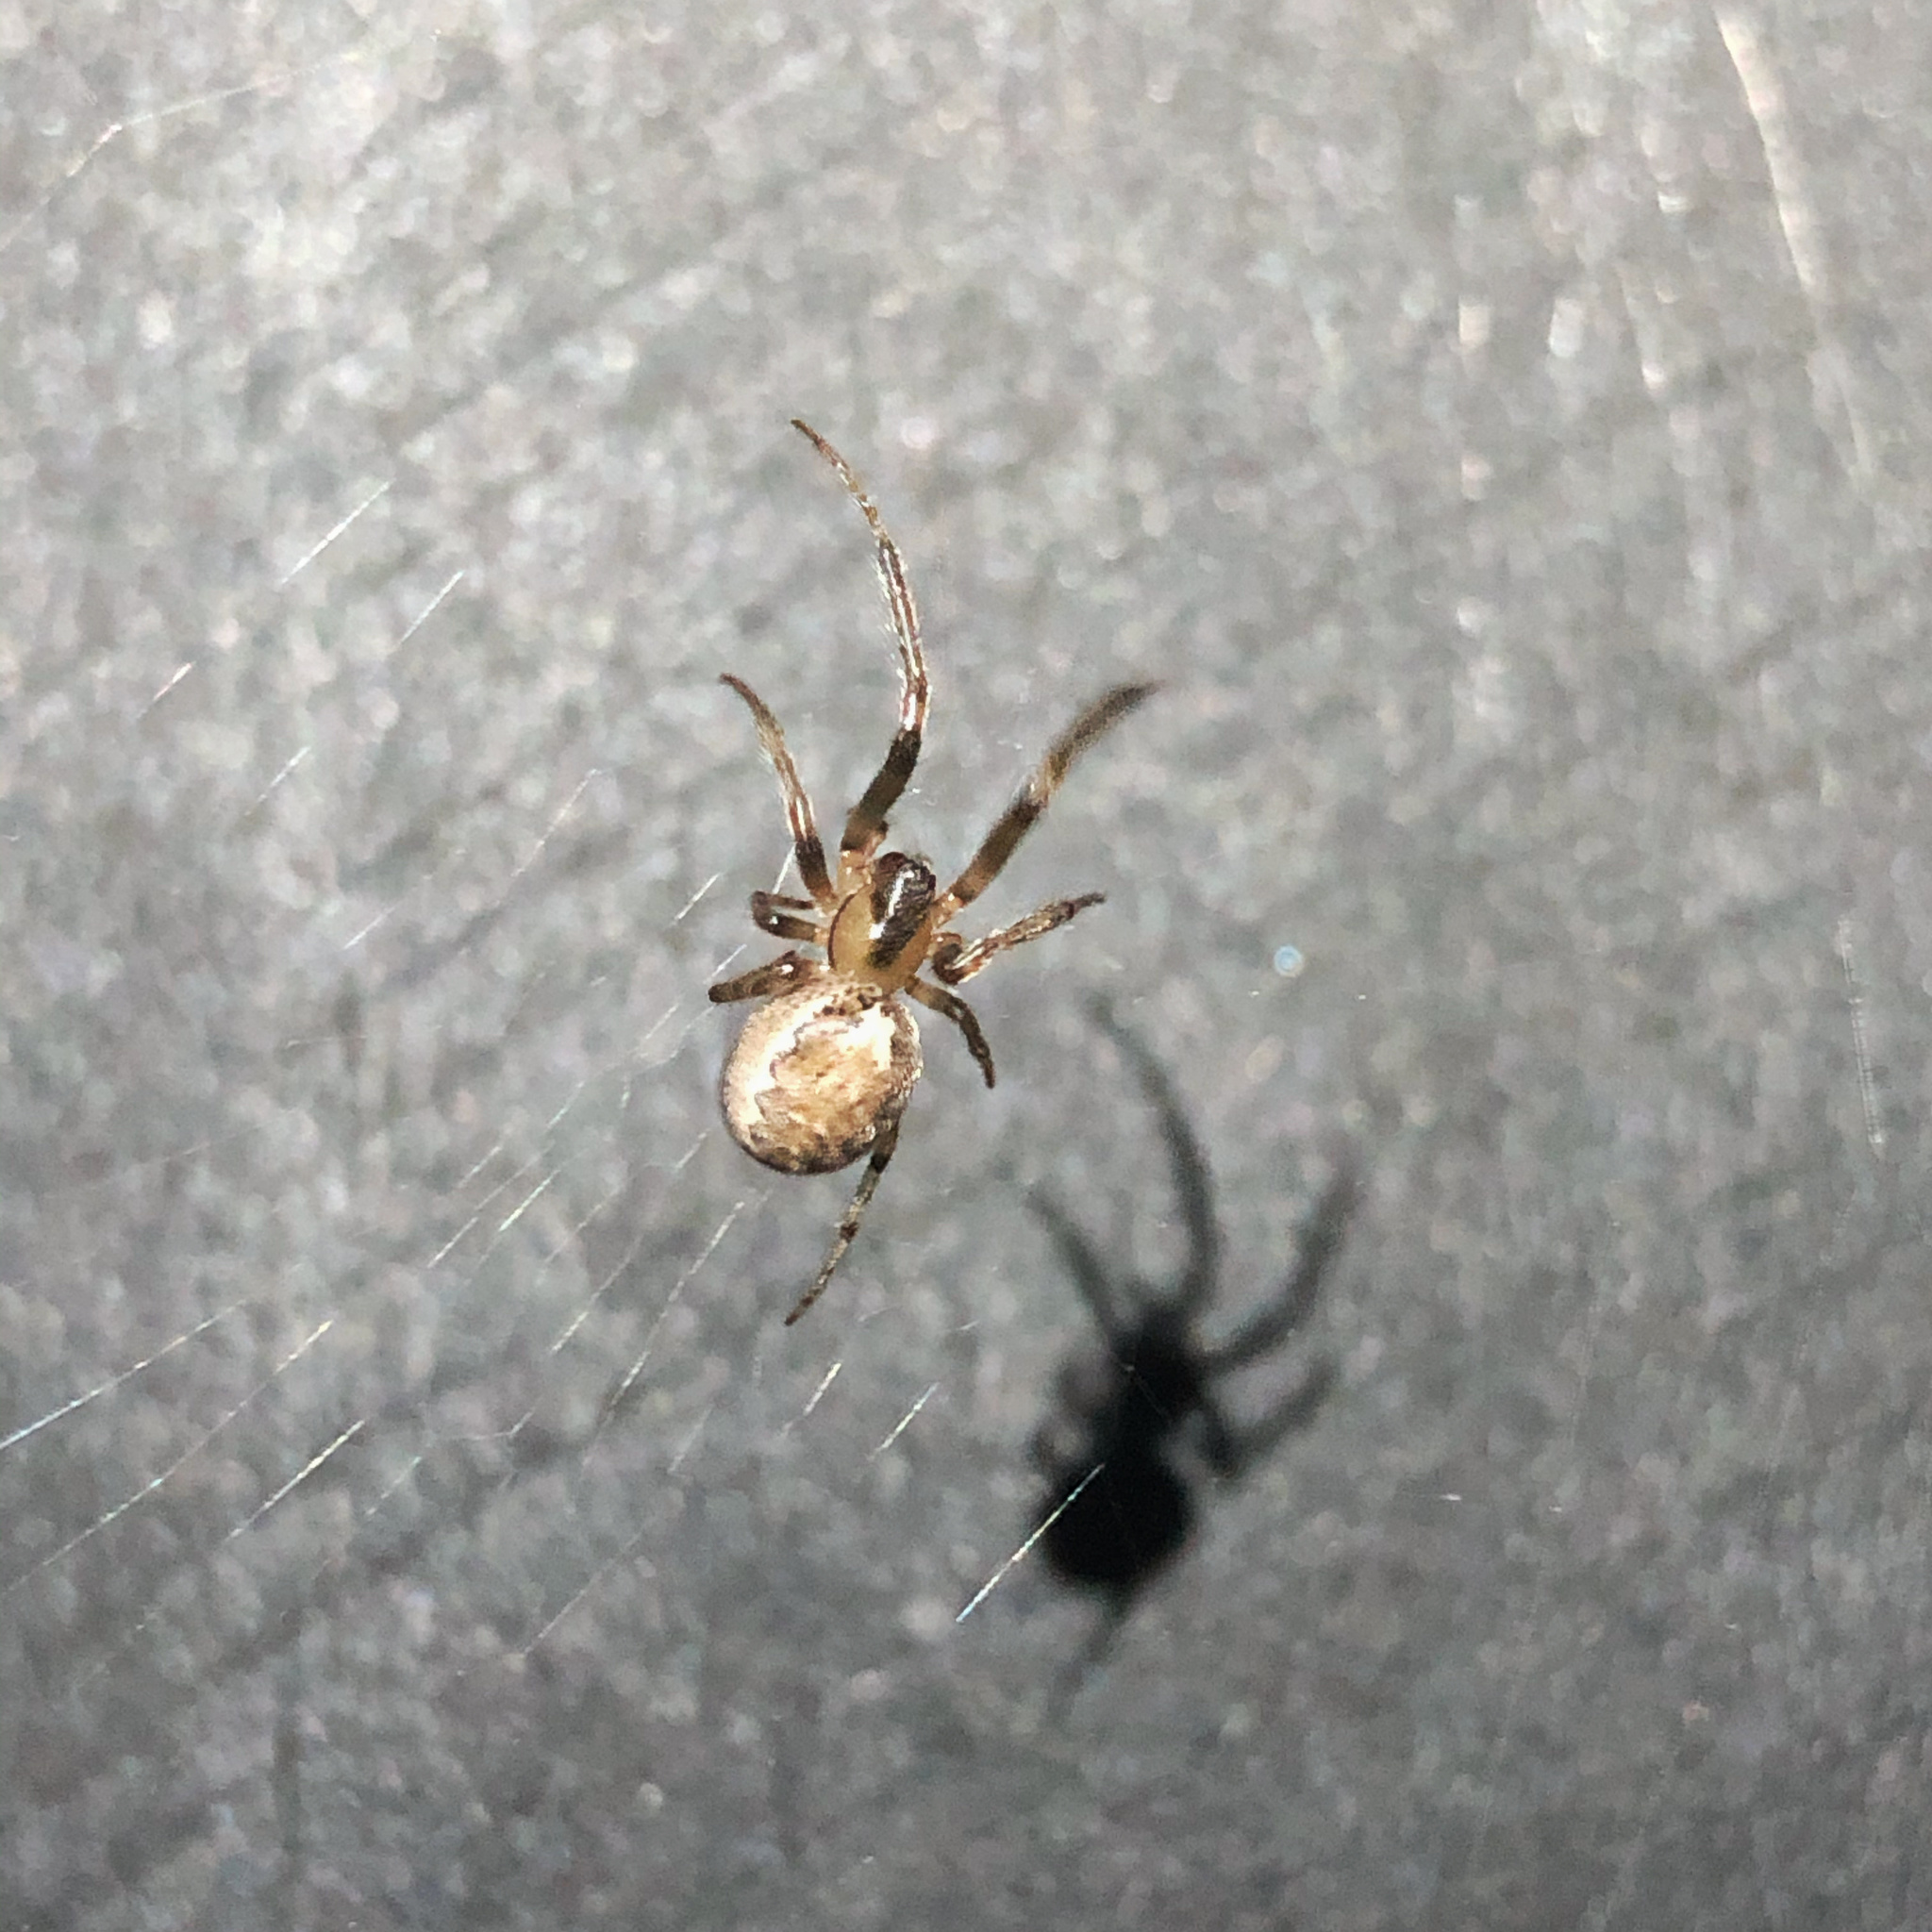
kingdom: Animalia
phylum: Arthropoda
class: Arachnida
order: Araneae
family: Araneidae
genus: Zygiella
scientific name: Zygiella x-notata
